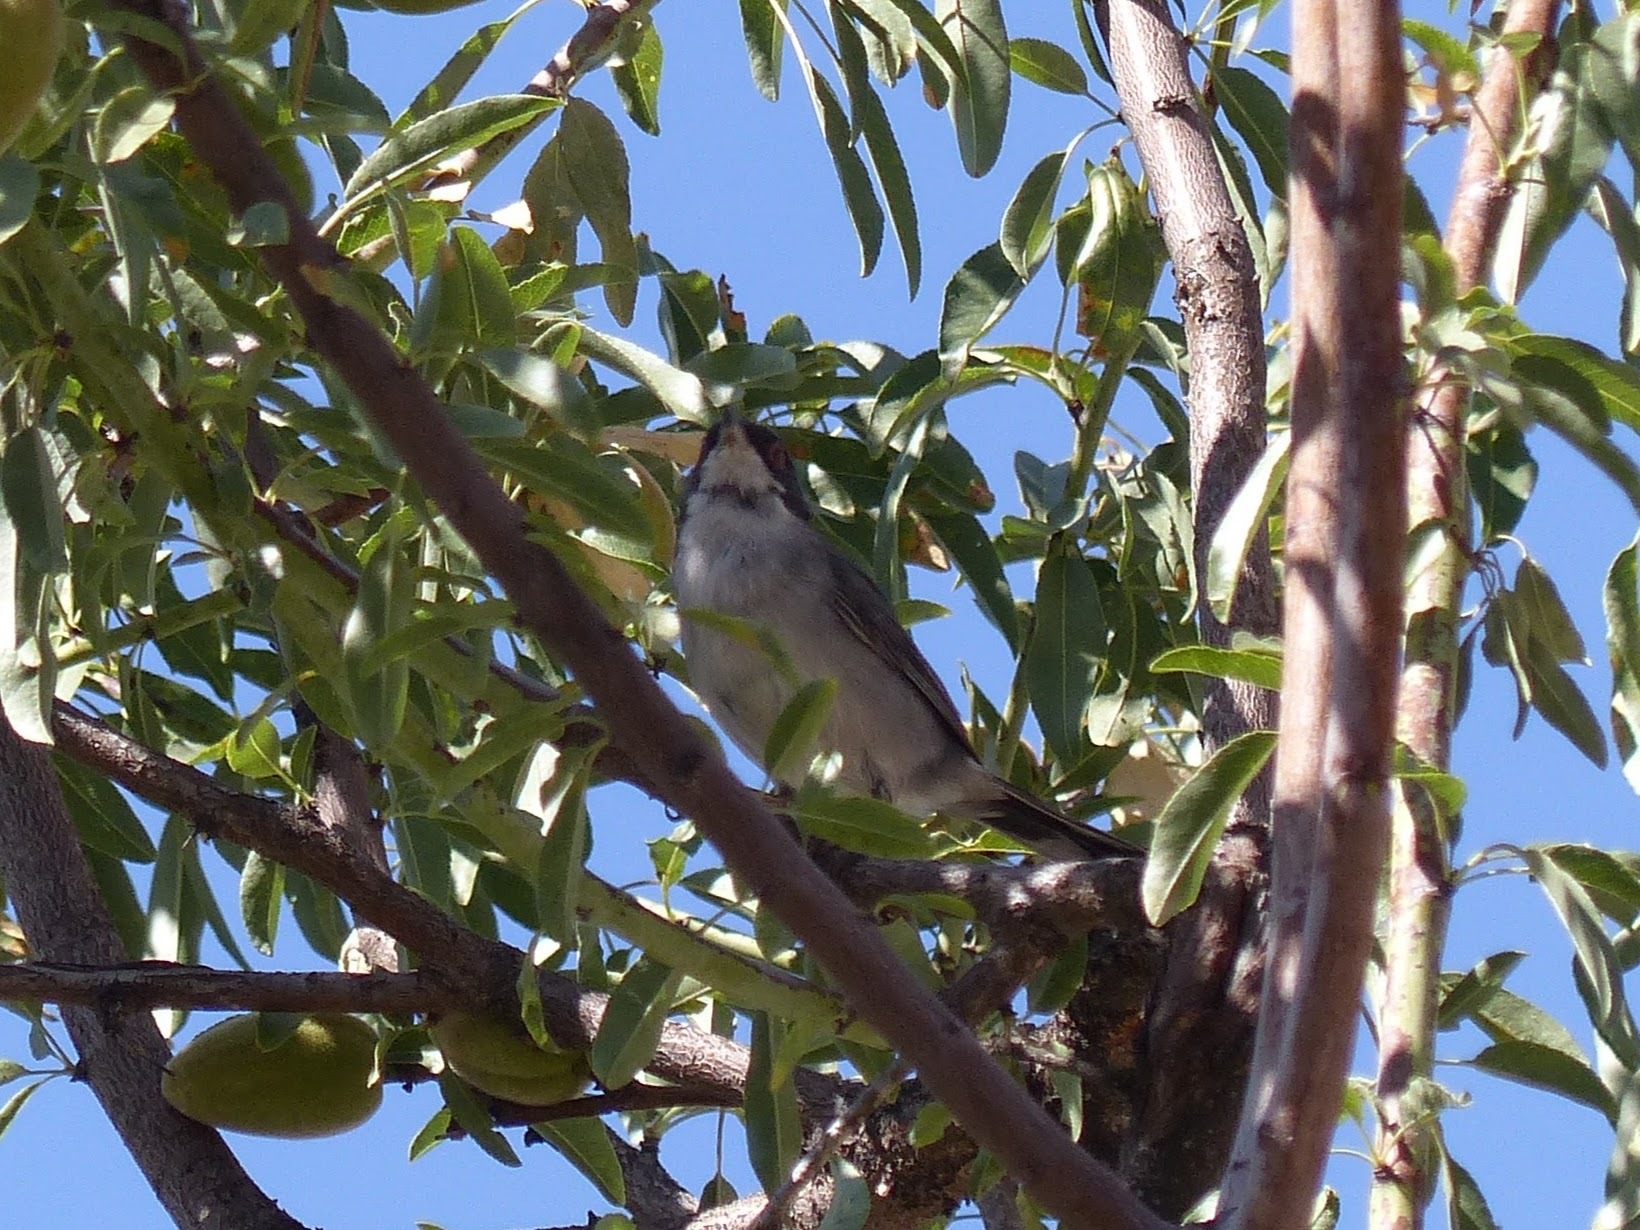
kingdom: Animalia
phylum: Chordata
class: Aves
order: Passeriformes
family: Sylviidae
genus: Curruca
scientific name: Curruca melanocephala
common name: Sardinian warbler
